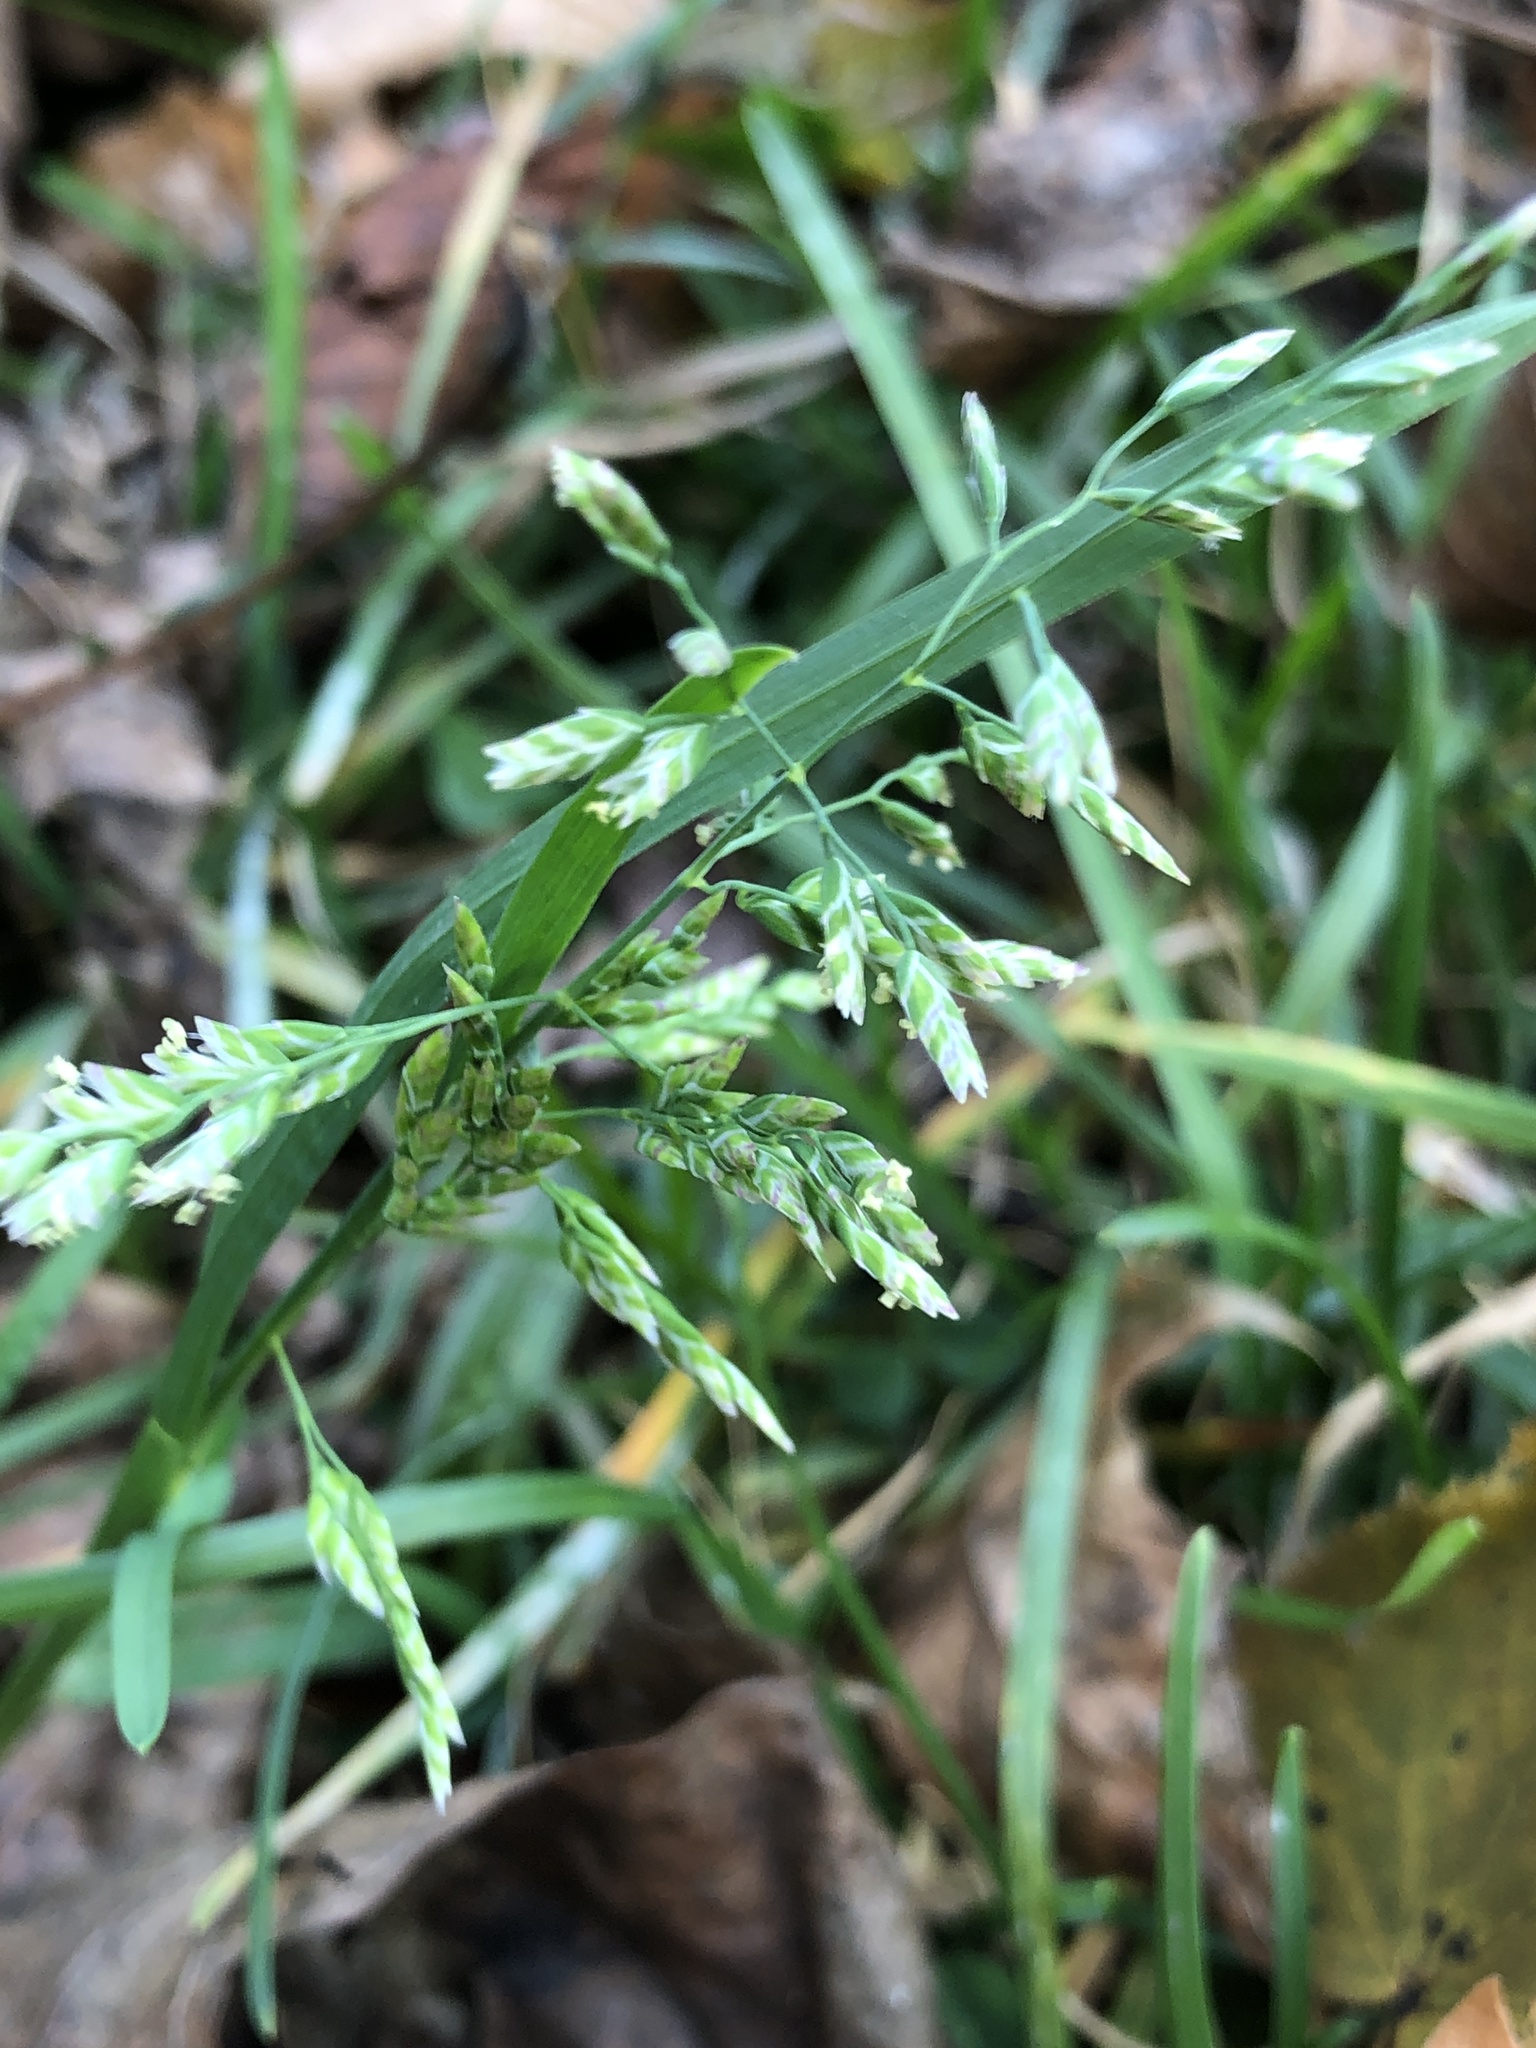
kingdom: Plantae
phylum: Tracheophyta
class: Liliopsida
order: Poales
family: Poaceae
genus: Poa
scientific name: Poa annua
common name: Annual bluegrass
